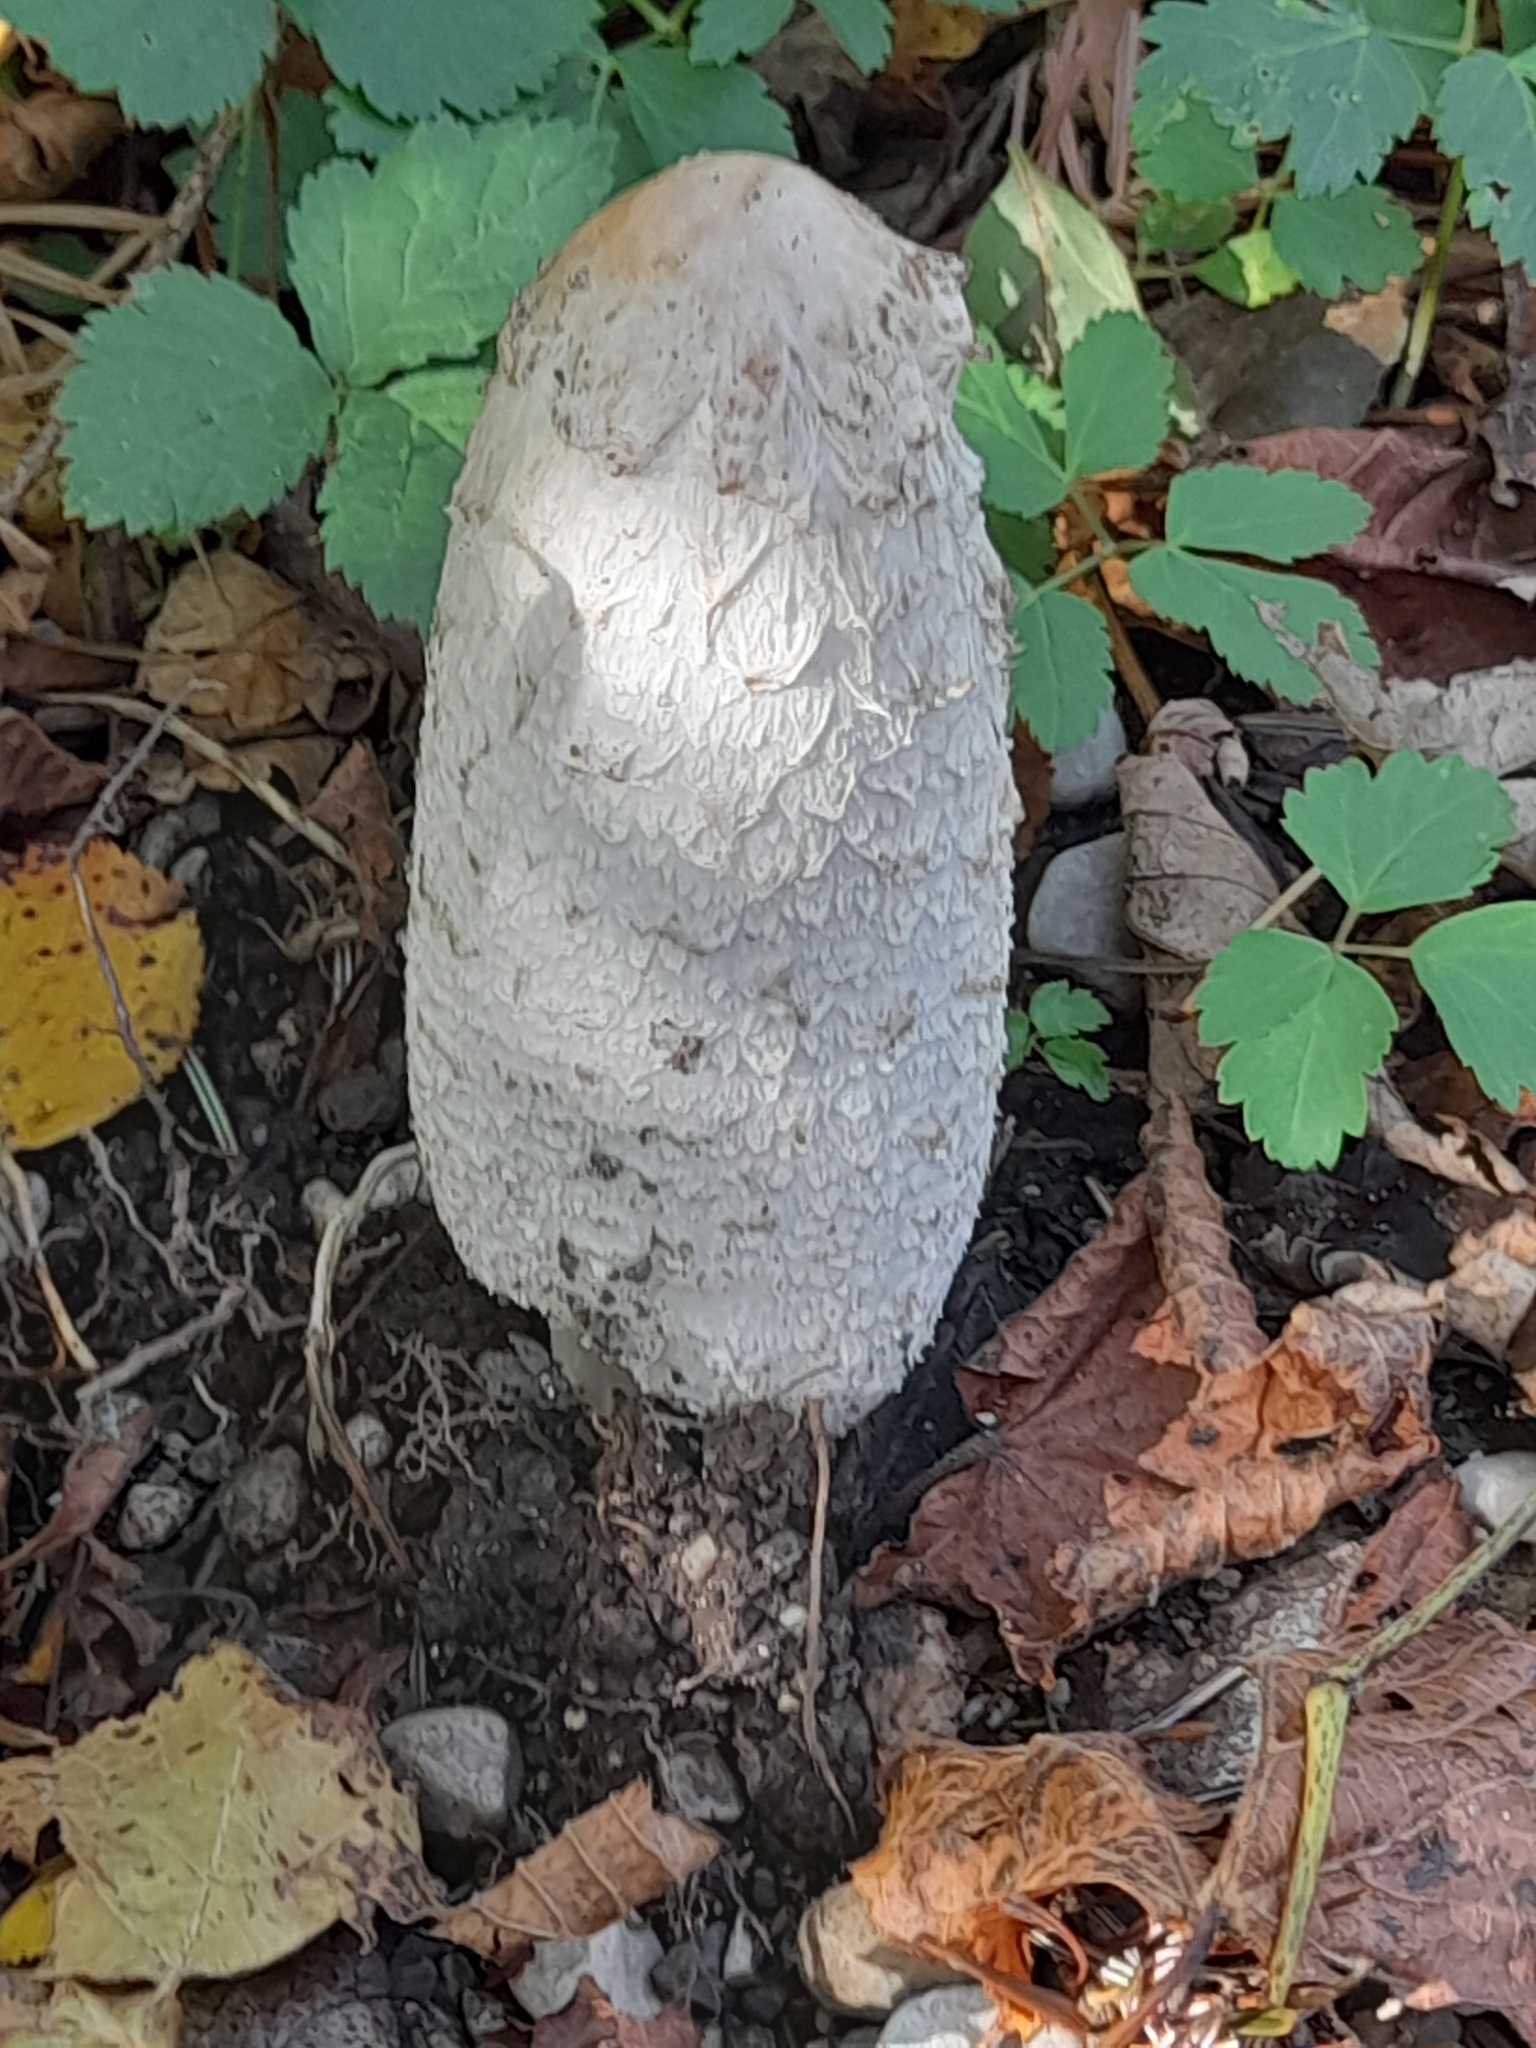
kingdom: Fungi
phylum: Basidiomycota
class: Agaricomycetes
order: Agaricales
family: Agaricaceae
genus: Coprinus
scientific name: Coprinus comatus
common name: Lawyer's wig
